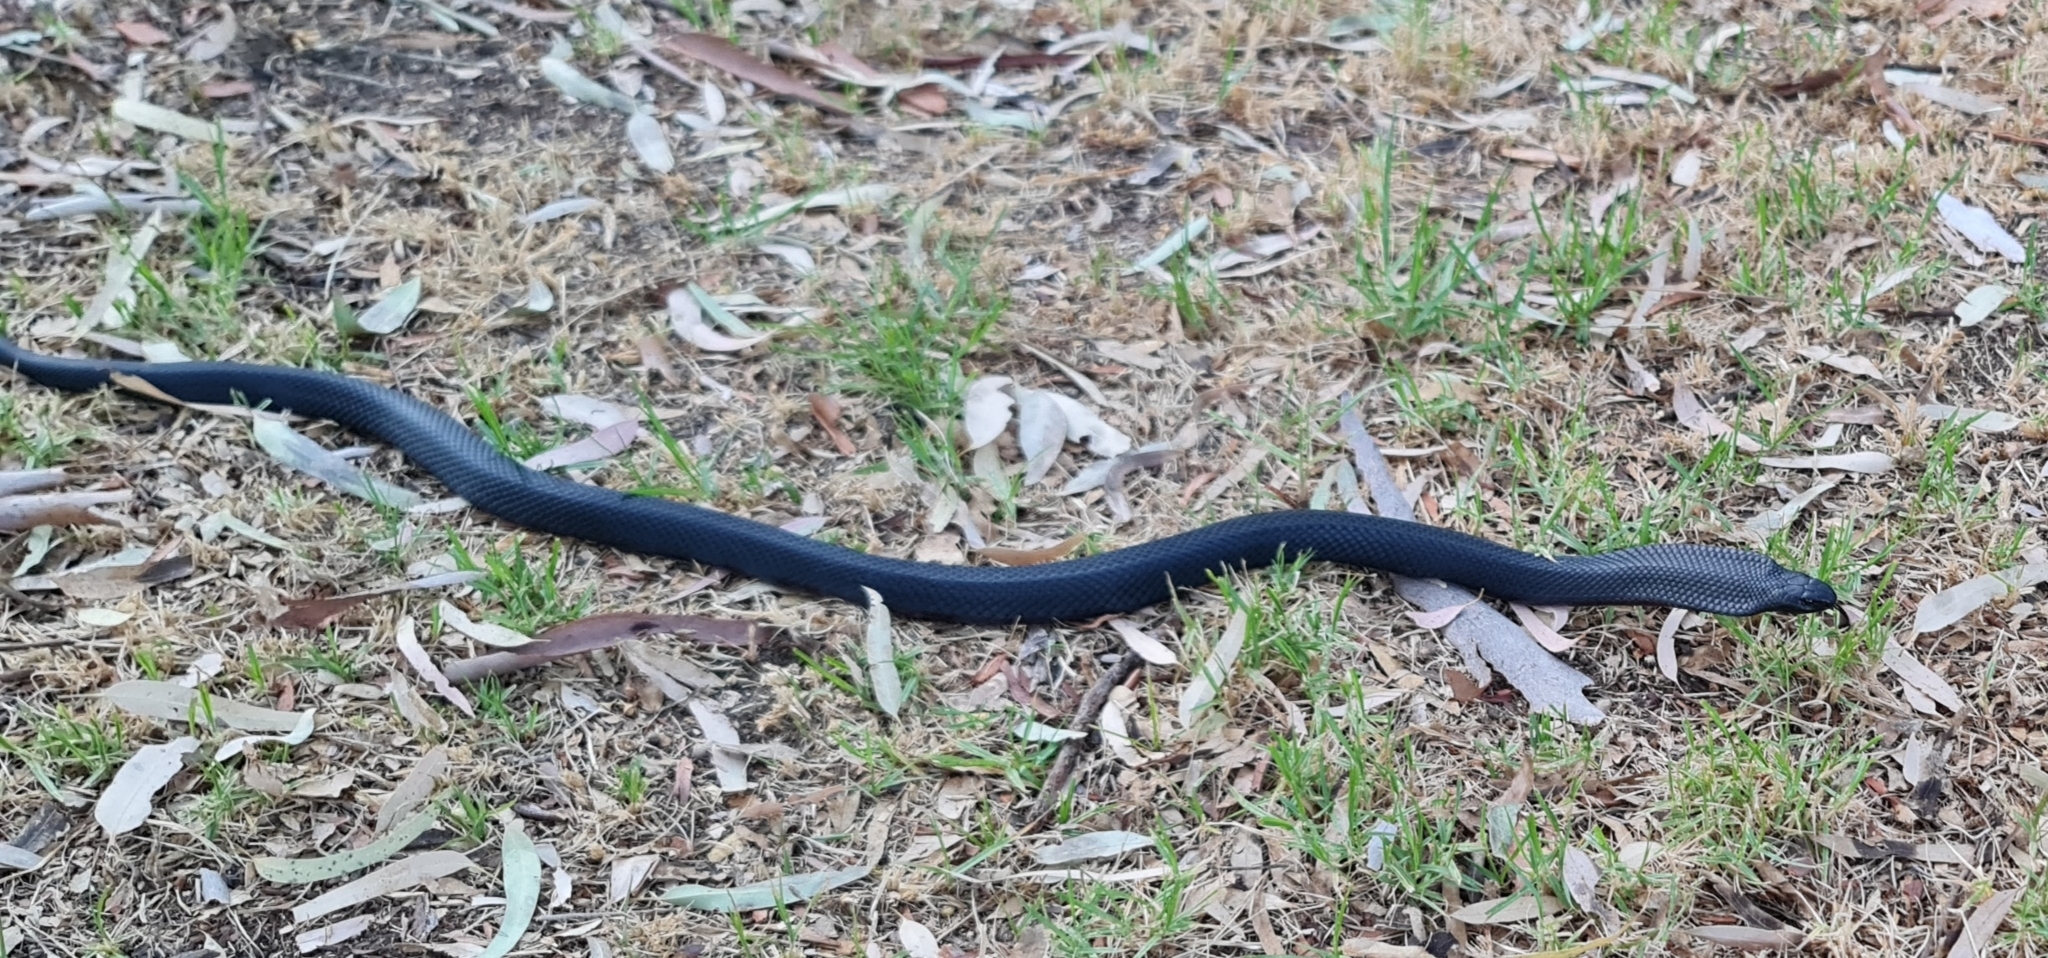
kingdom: Animalia
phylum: Chordata
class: Squamata
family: Elapidae
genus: Pseudechis
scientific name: Pseudechis porphyriacus
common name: Australian black snake
